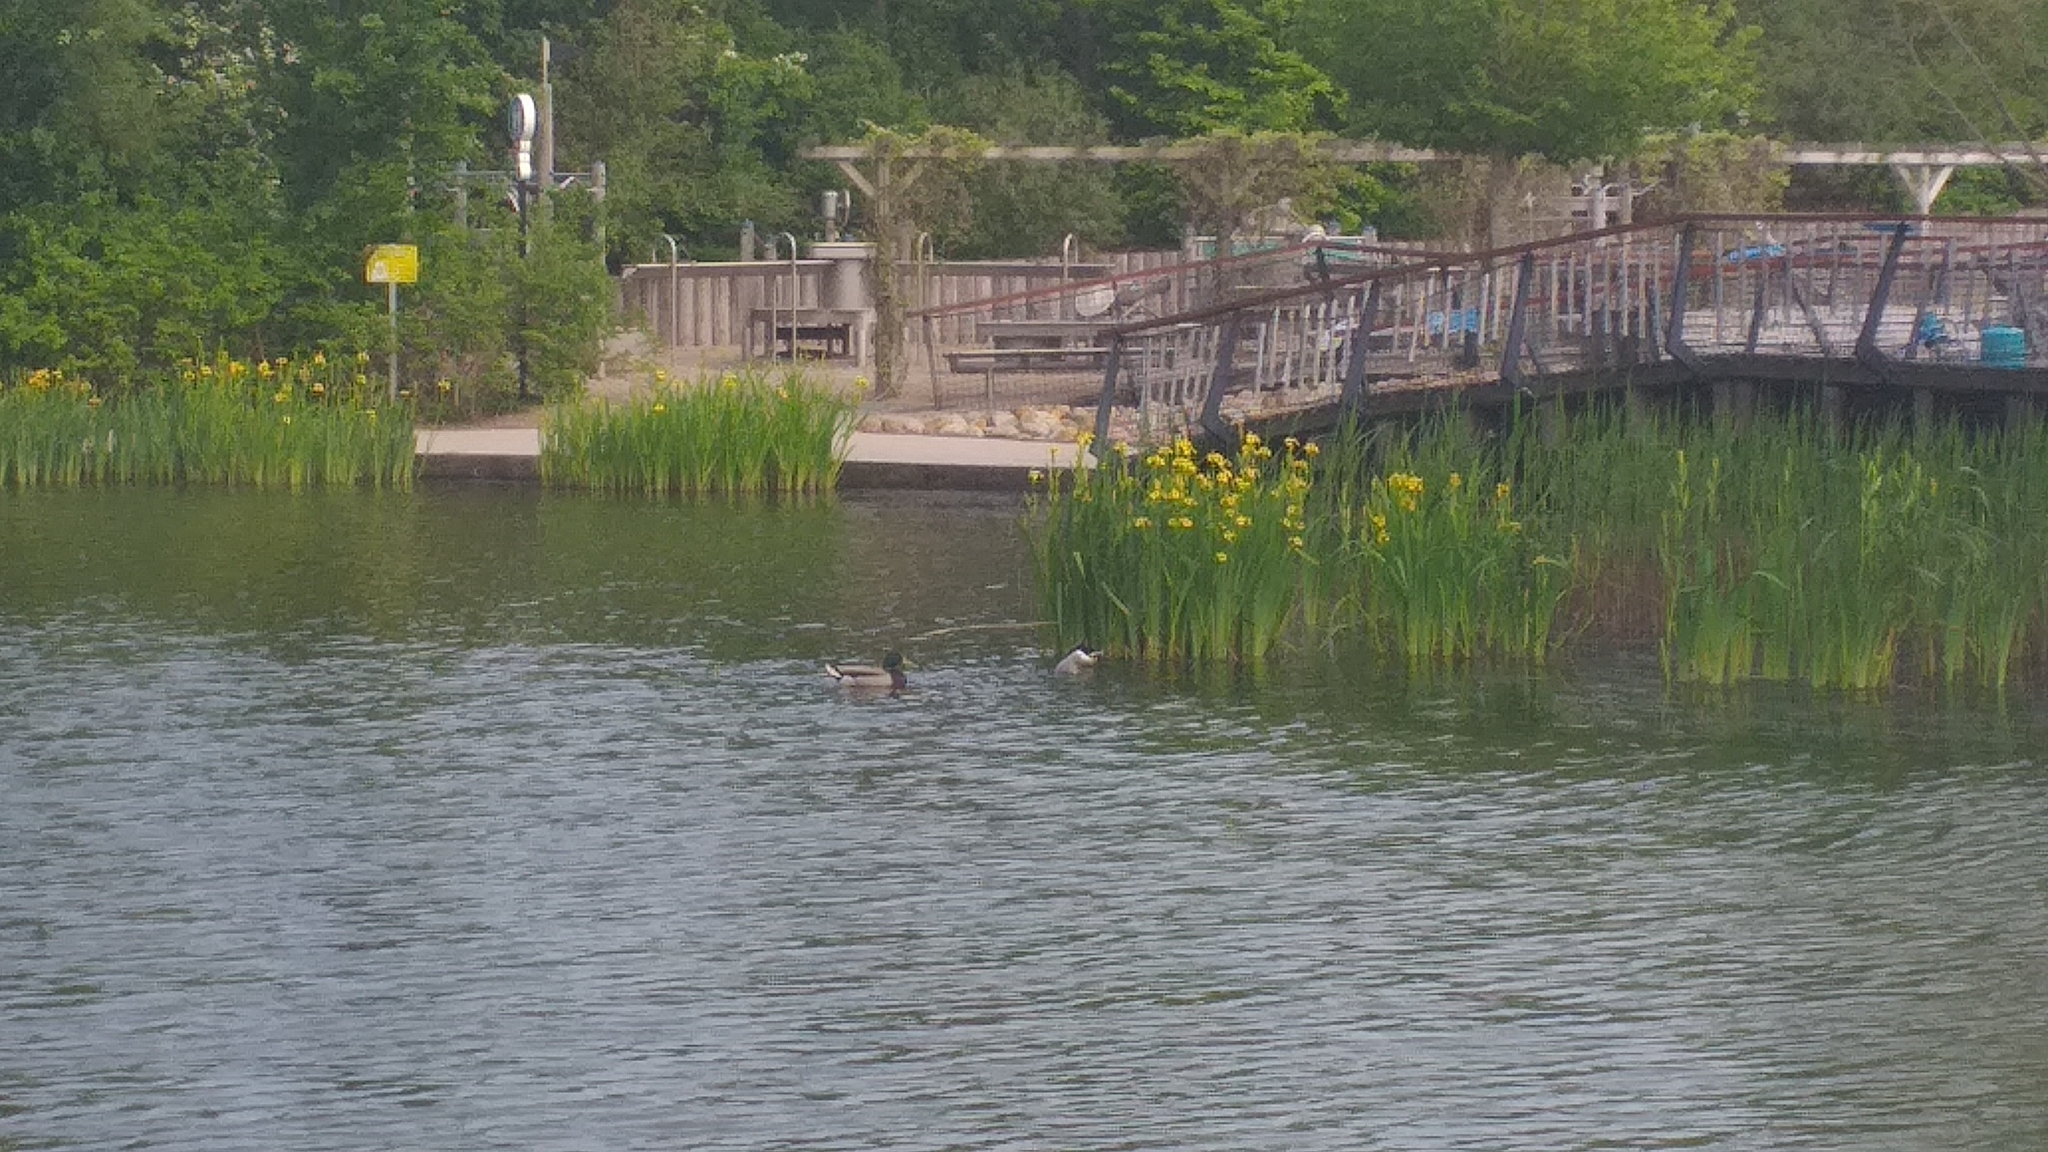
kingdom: Animalia
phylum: Chordata
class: Aves
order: Anseriformes
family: Anatidae
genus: Anas
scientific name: Anas platyrhynchos
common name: Mallard
